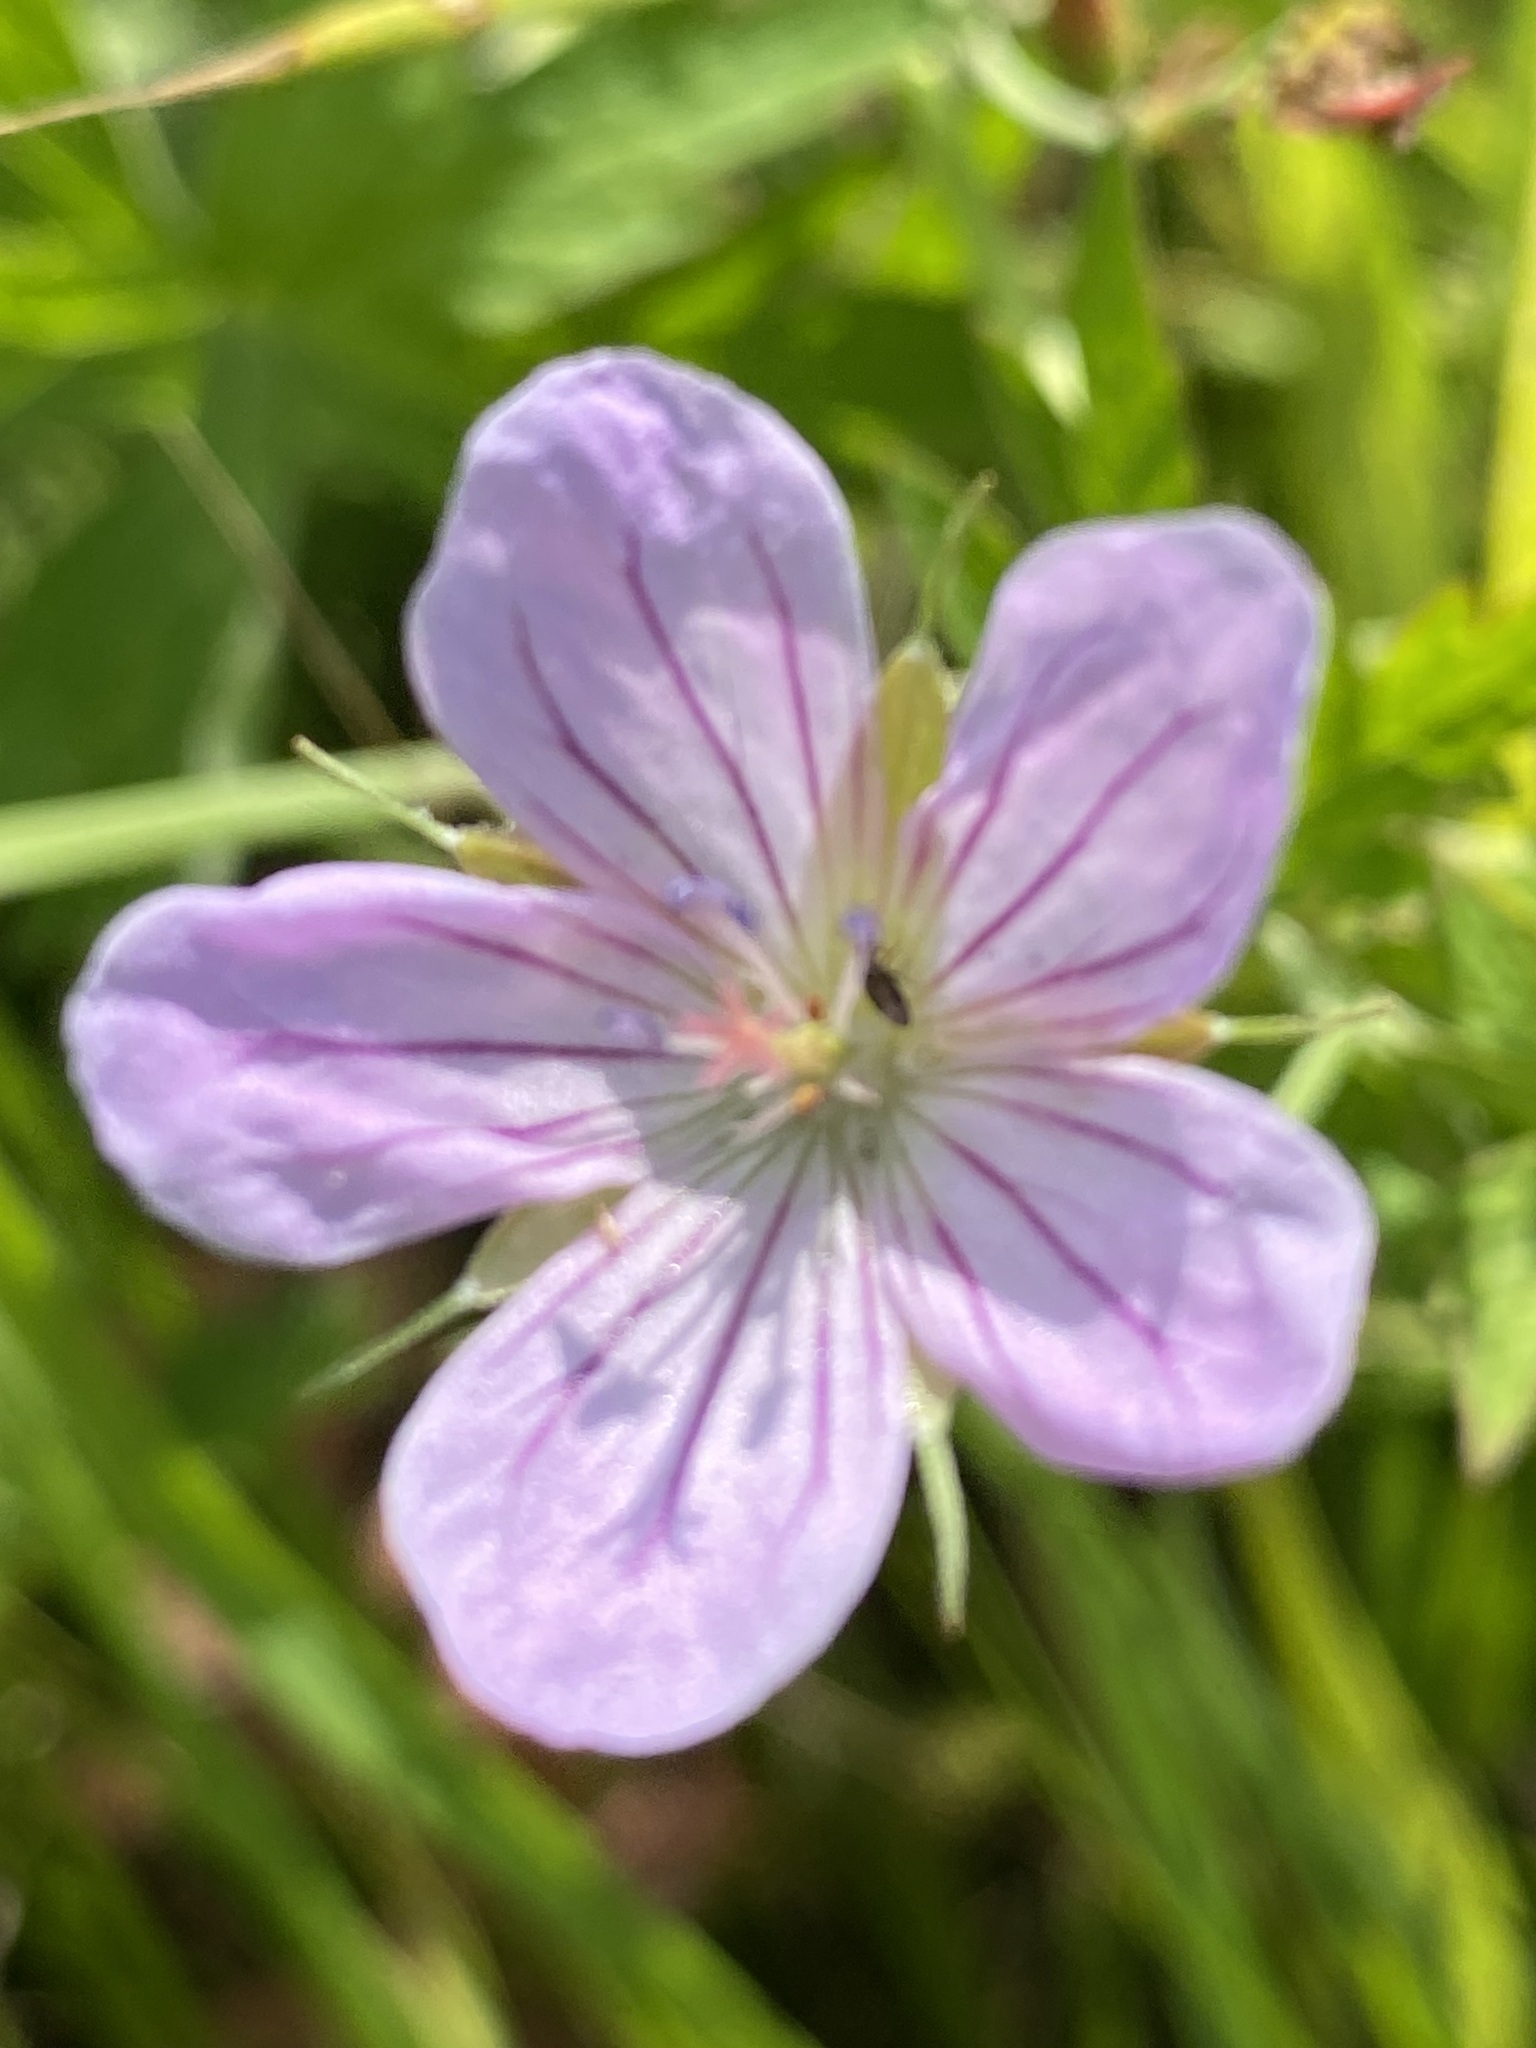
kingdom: Plantae
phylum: Tracheophyta
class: Magnoliopsida
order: Geraniales
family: Geraniaceae
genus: Geranium
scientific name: Geranium collinum
